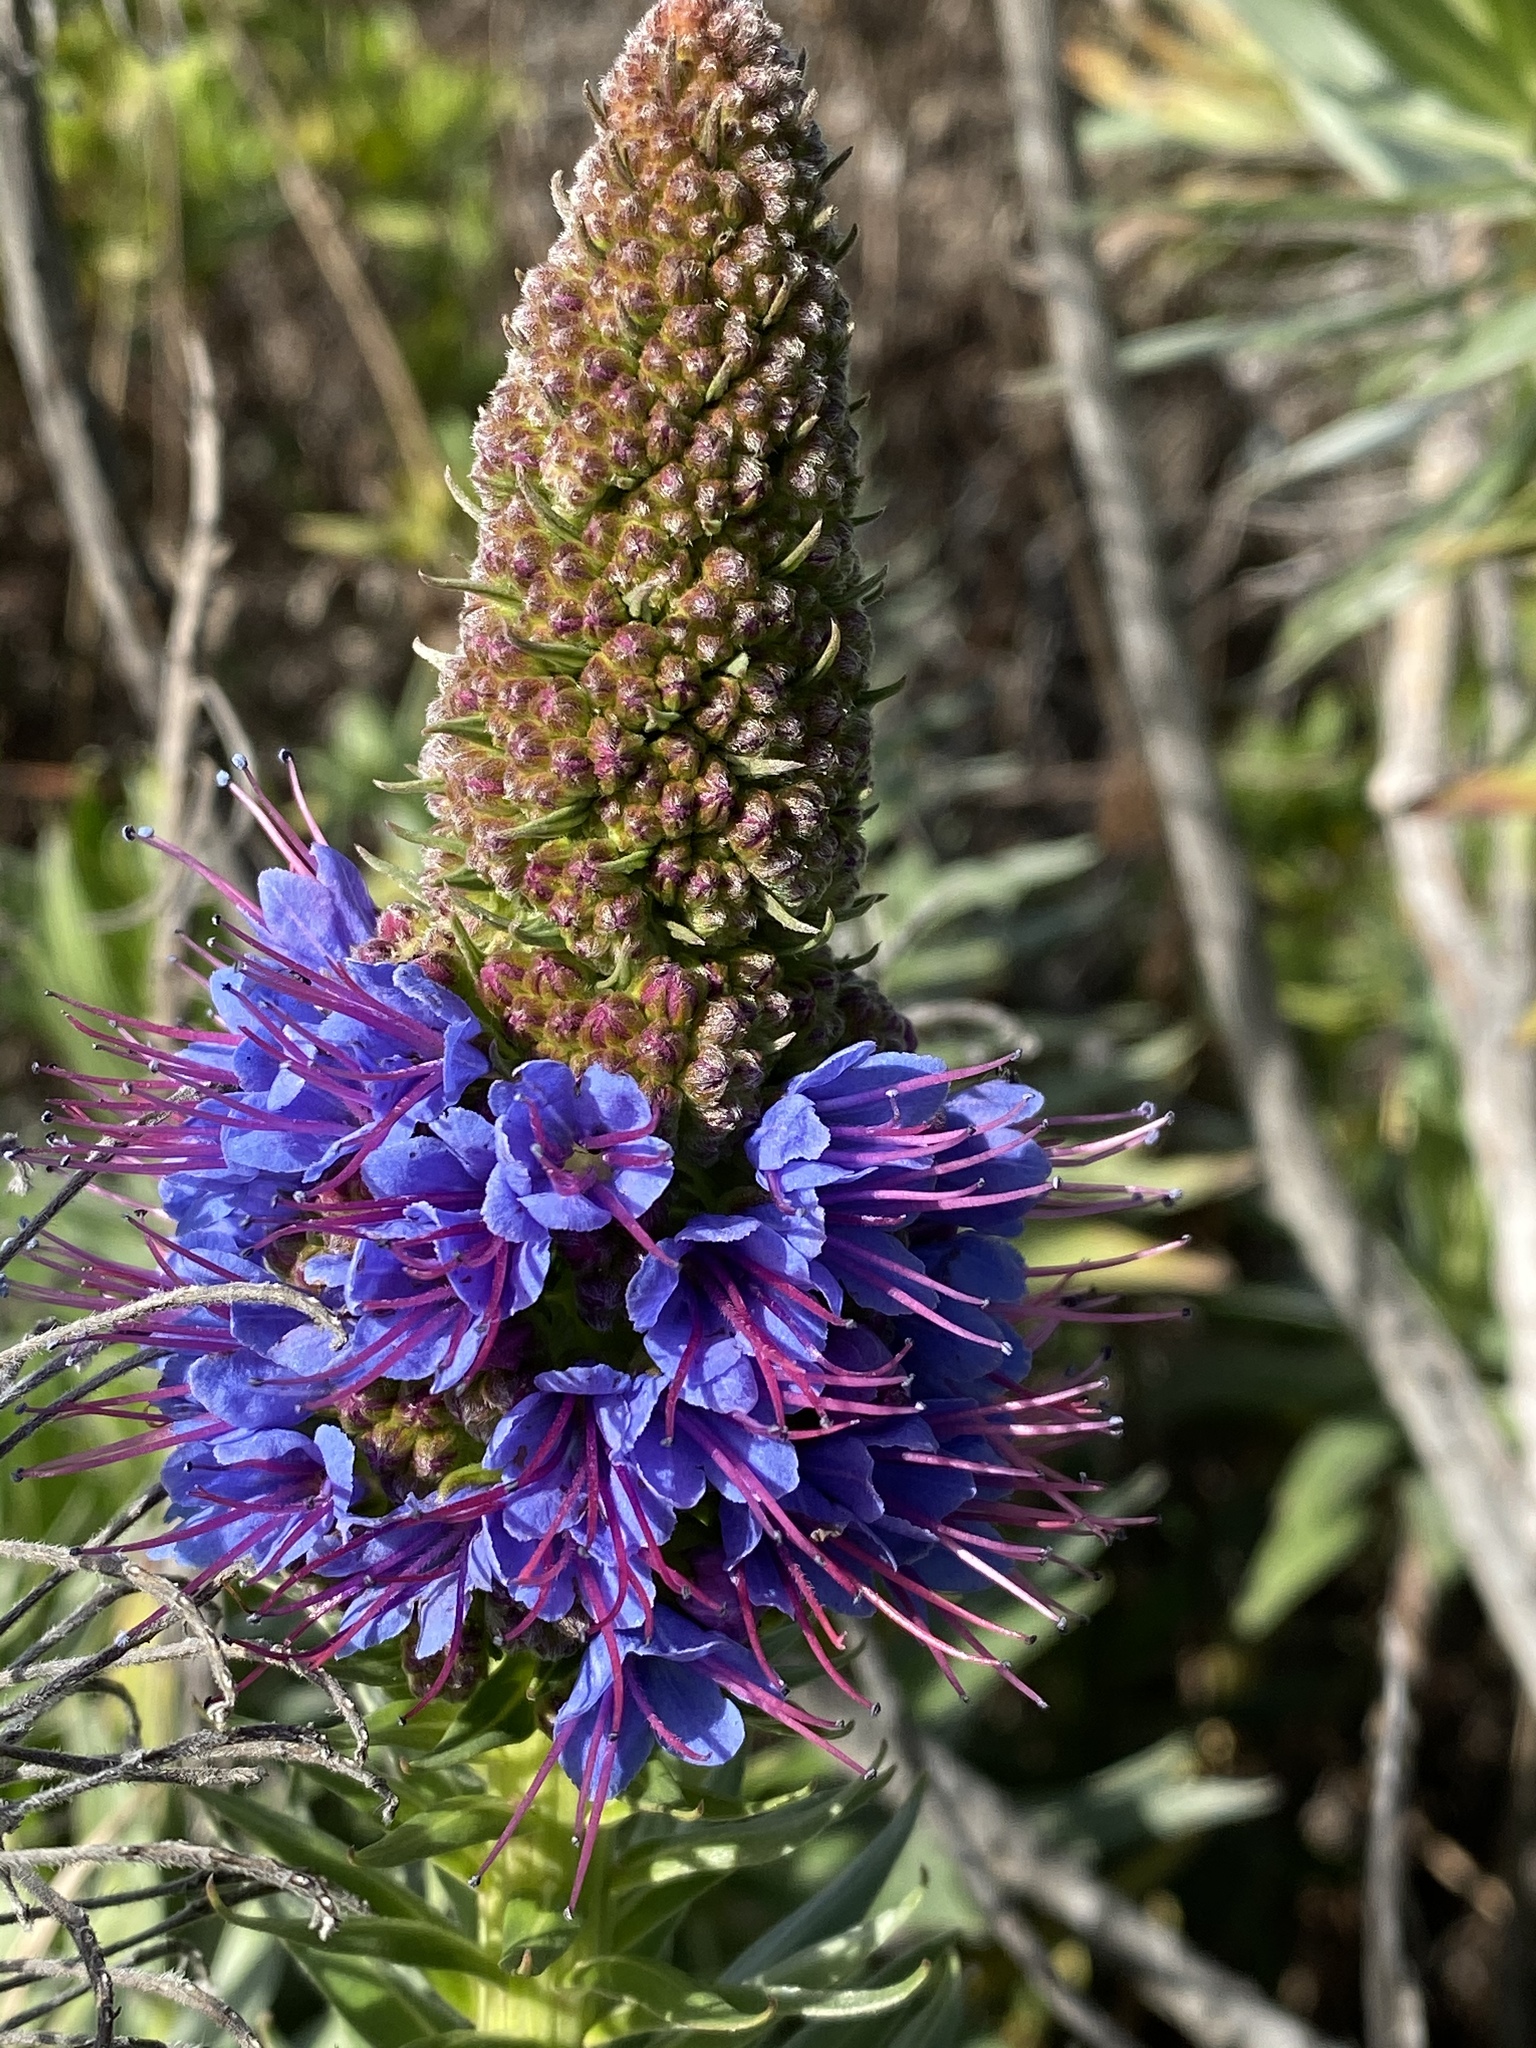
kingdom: Plantae
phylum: Tracheophyta
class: Magnoliopsida
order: Boraginales
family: Boraginaceae
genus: Echium
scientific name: Echium candicans
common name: Pride of madeira
